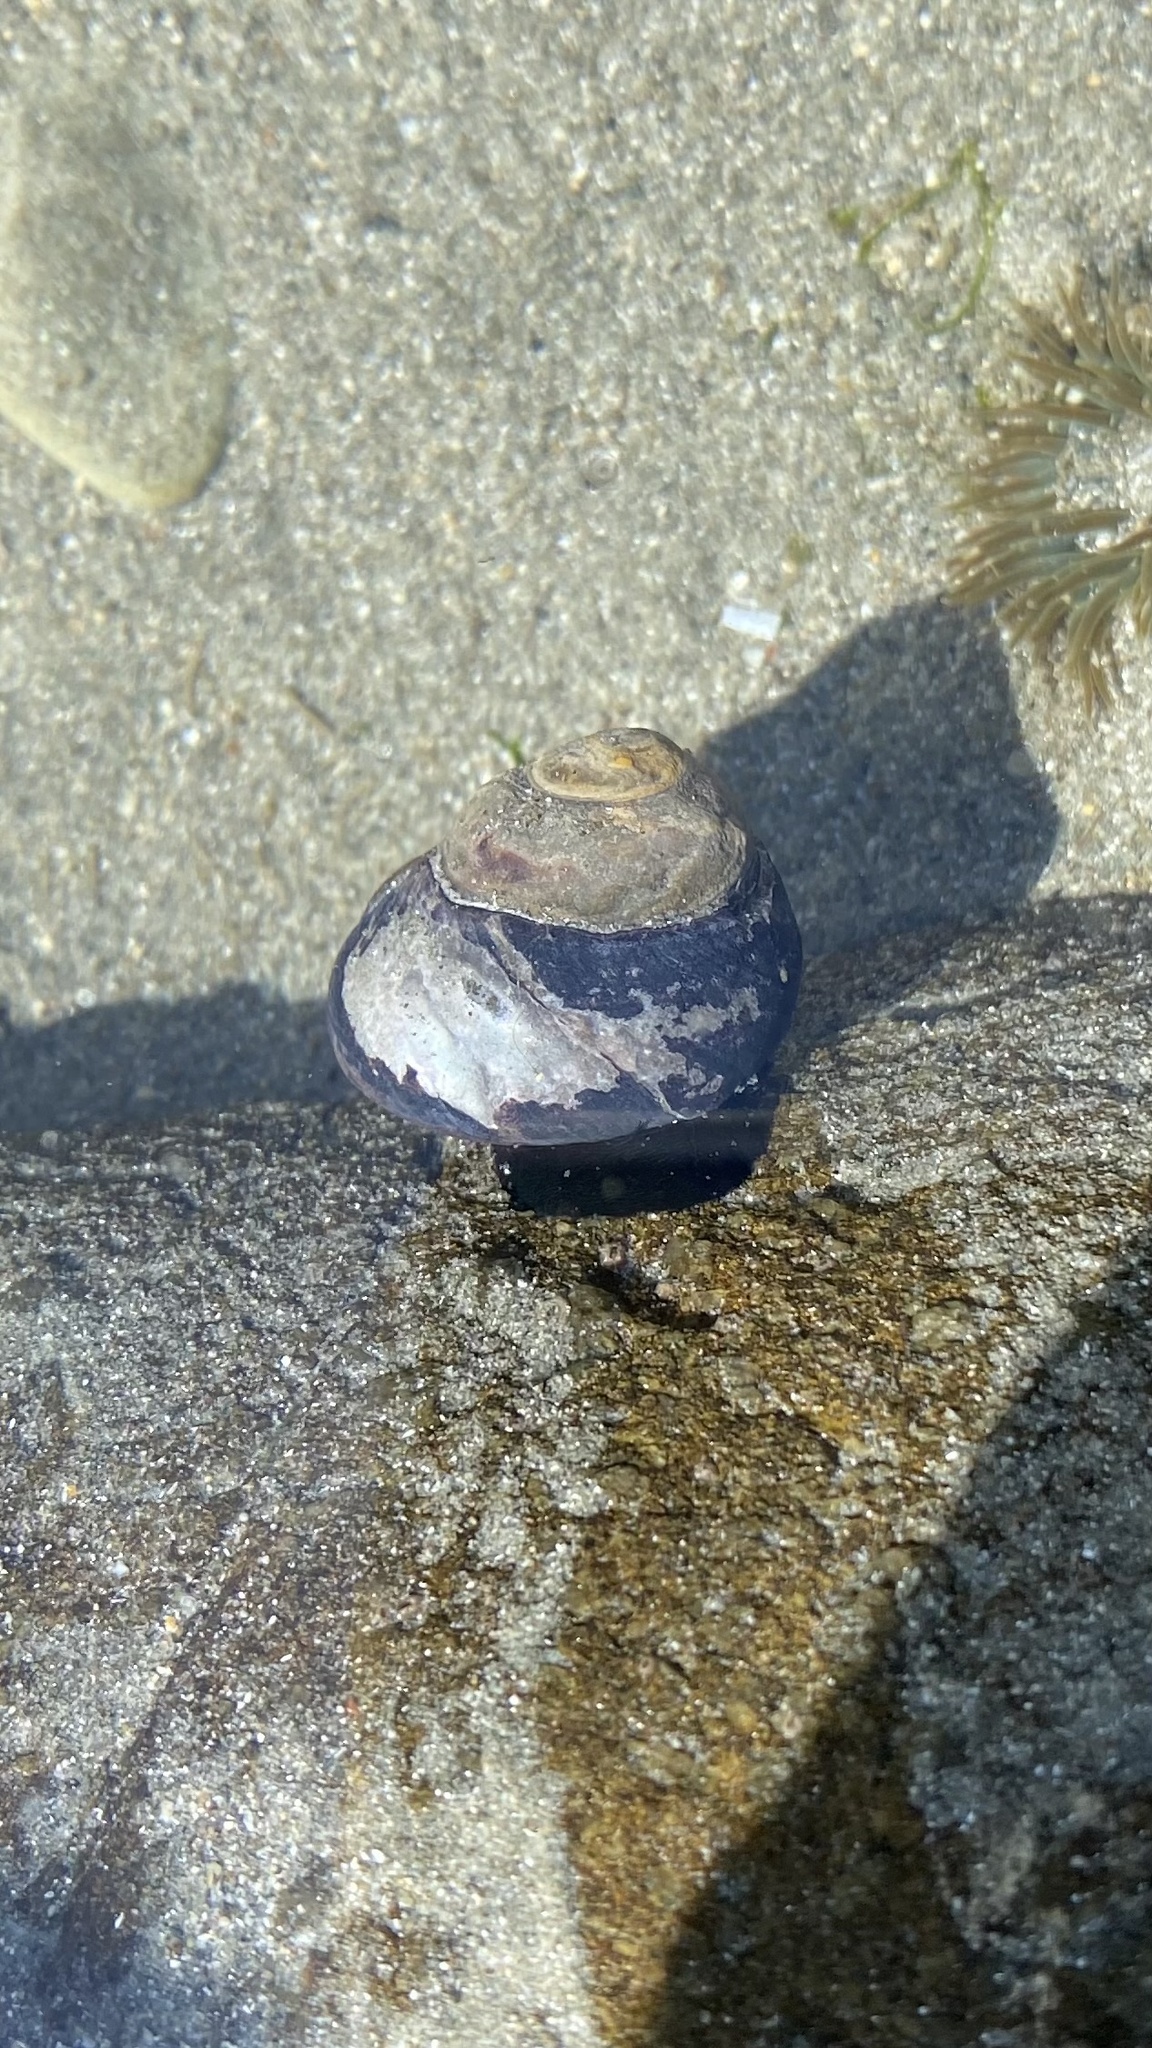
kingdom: Animalia
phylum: Mollusca
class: Gastropoda
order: Trochida
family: Tegulidae
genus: Tegula
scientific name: Tegula funebralis
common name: Black tegula
